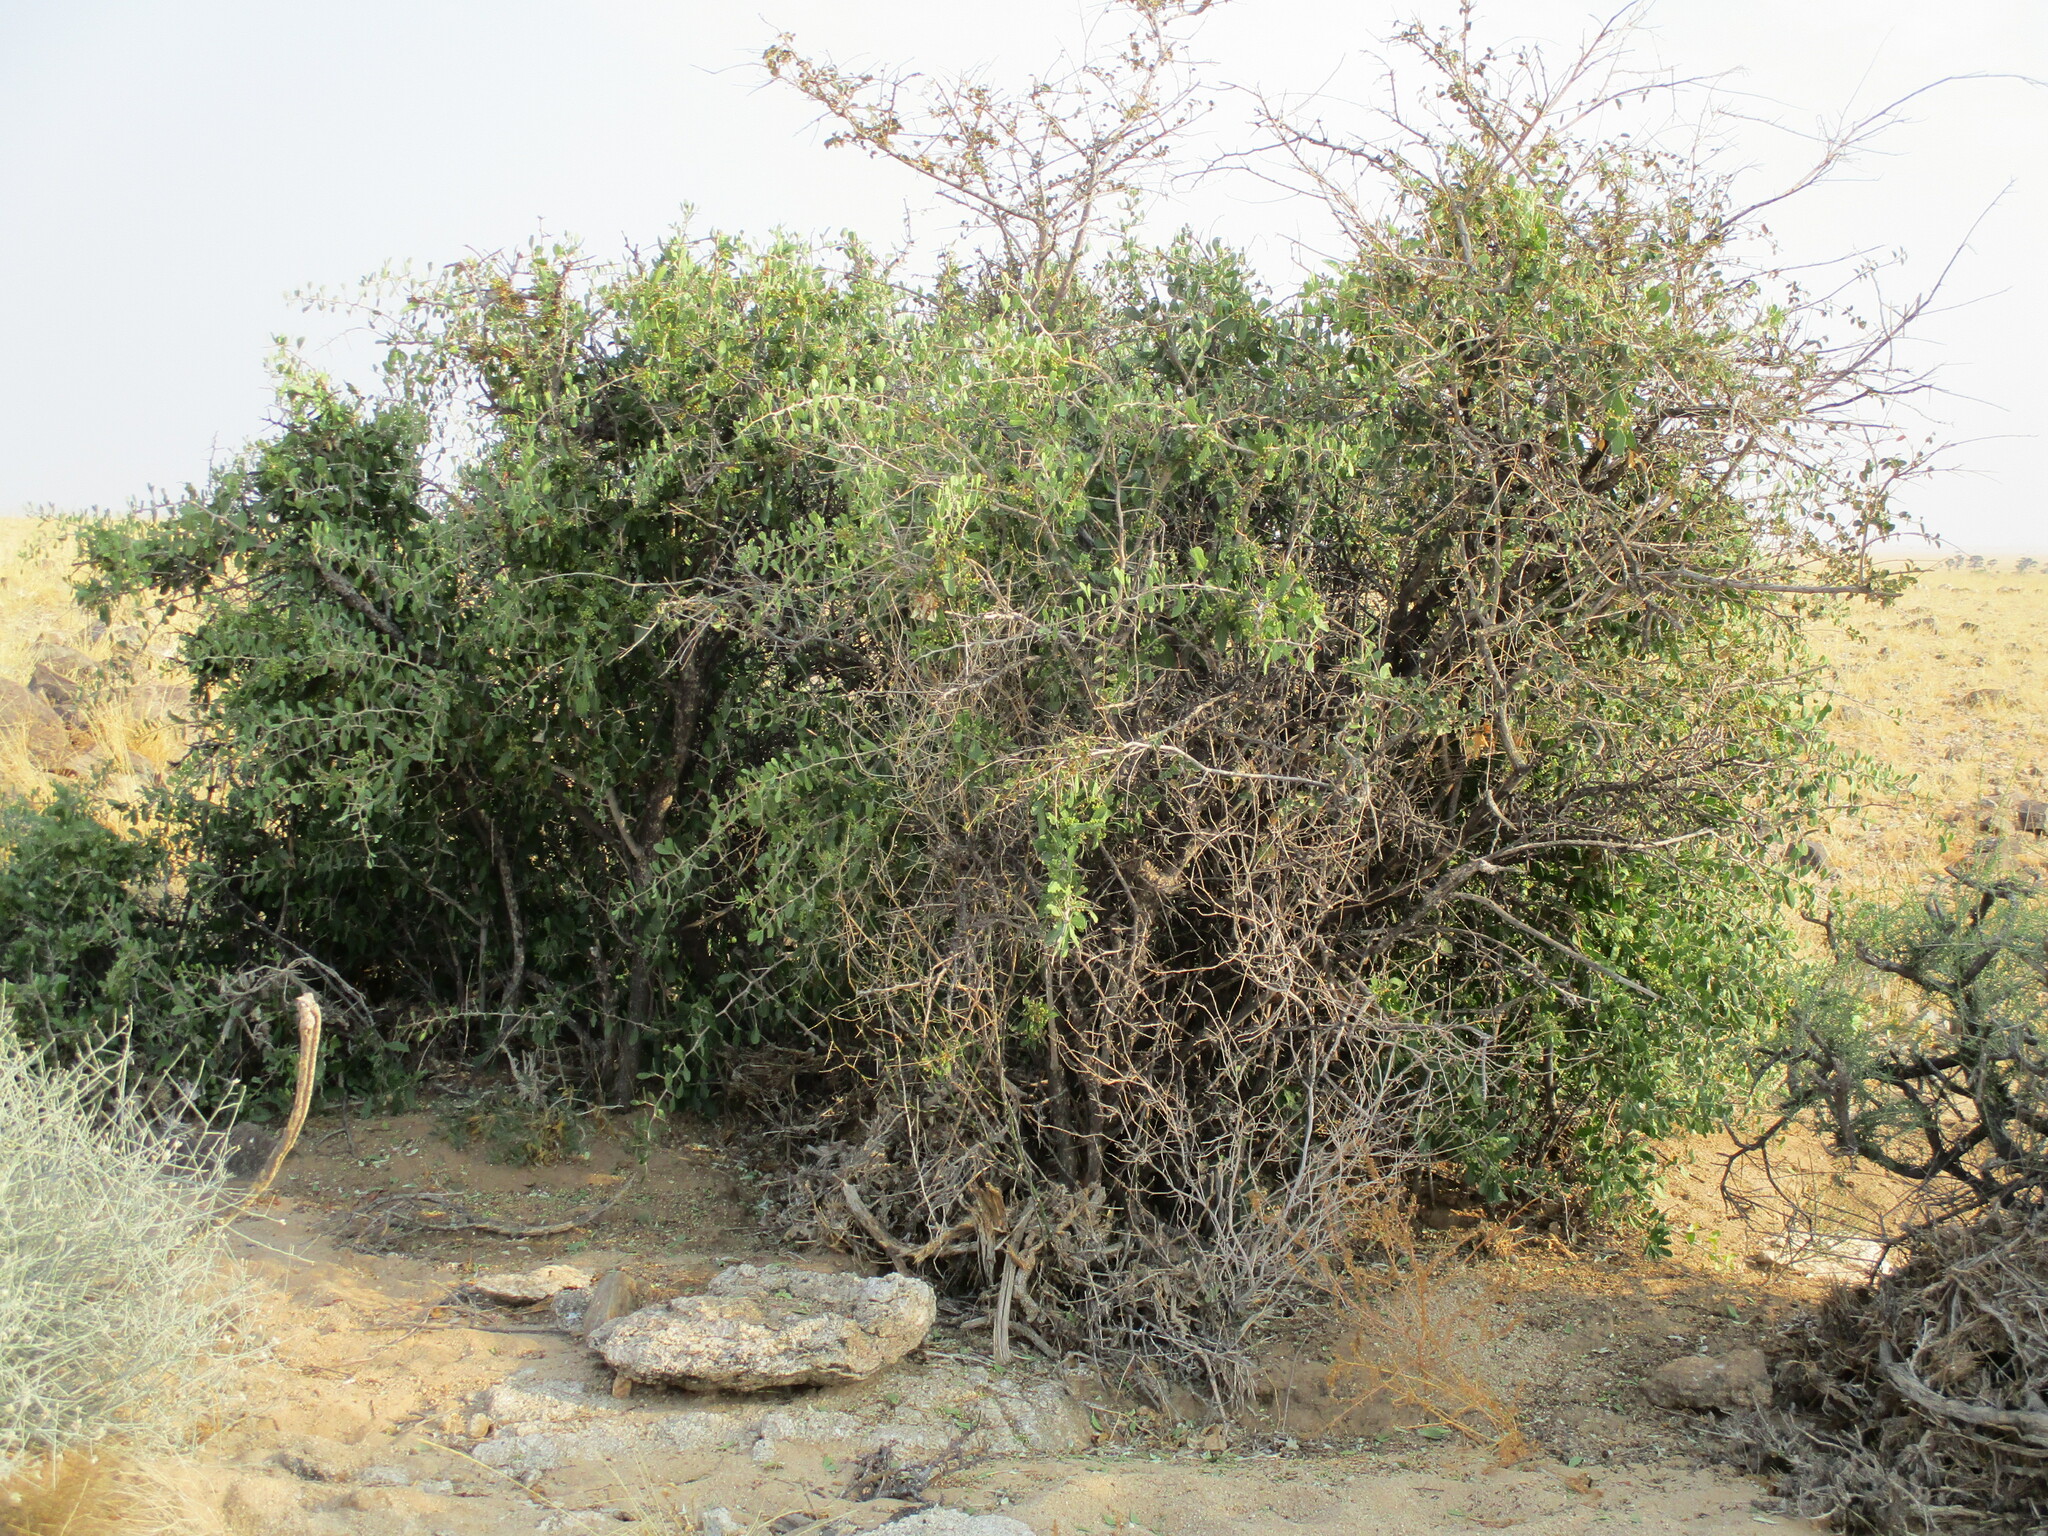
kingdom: Plantae
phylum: Tracheophyta
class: Magnoliopsida
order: Celastrales
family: Celastraceae
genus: Gymnosporia
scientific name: Gymnosporia senegalensis
